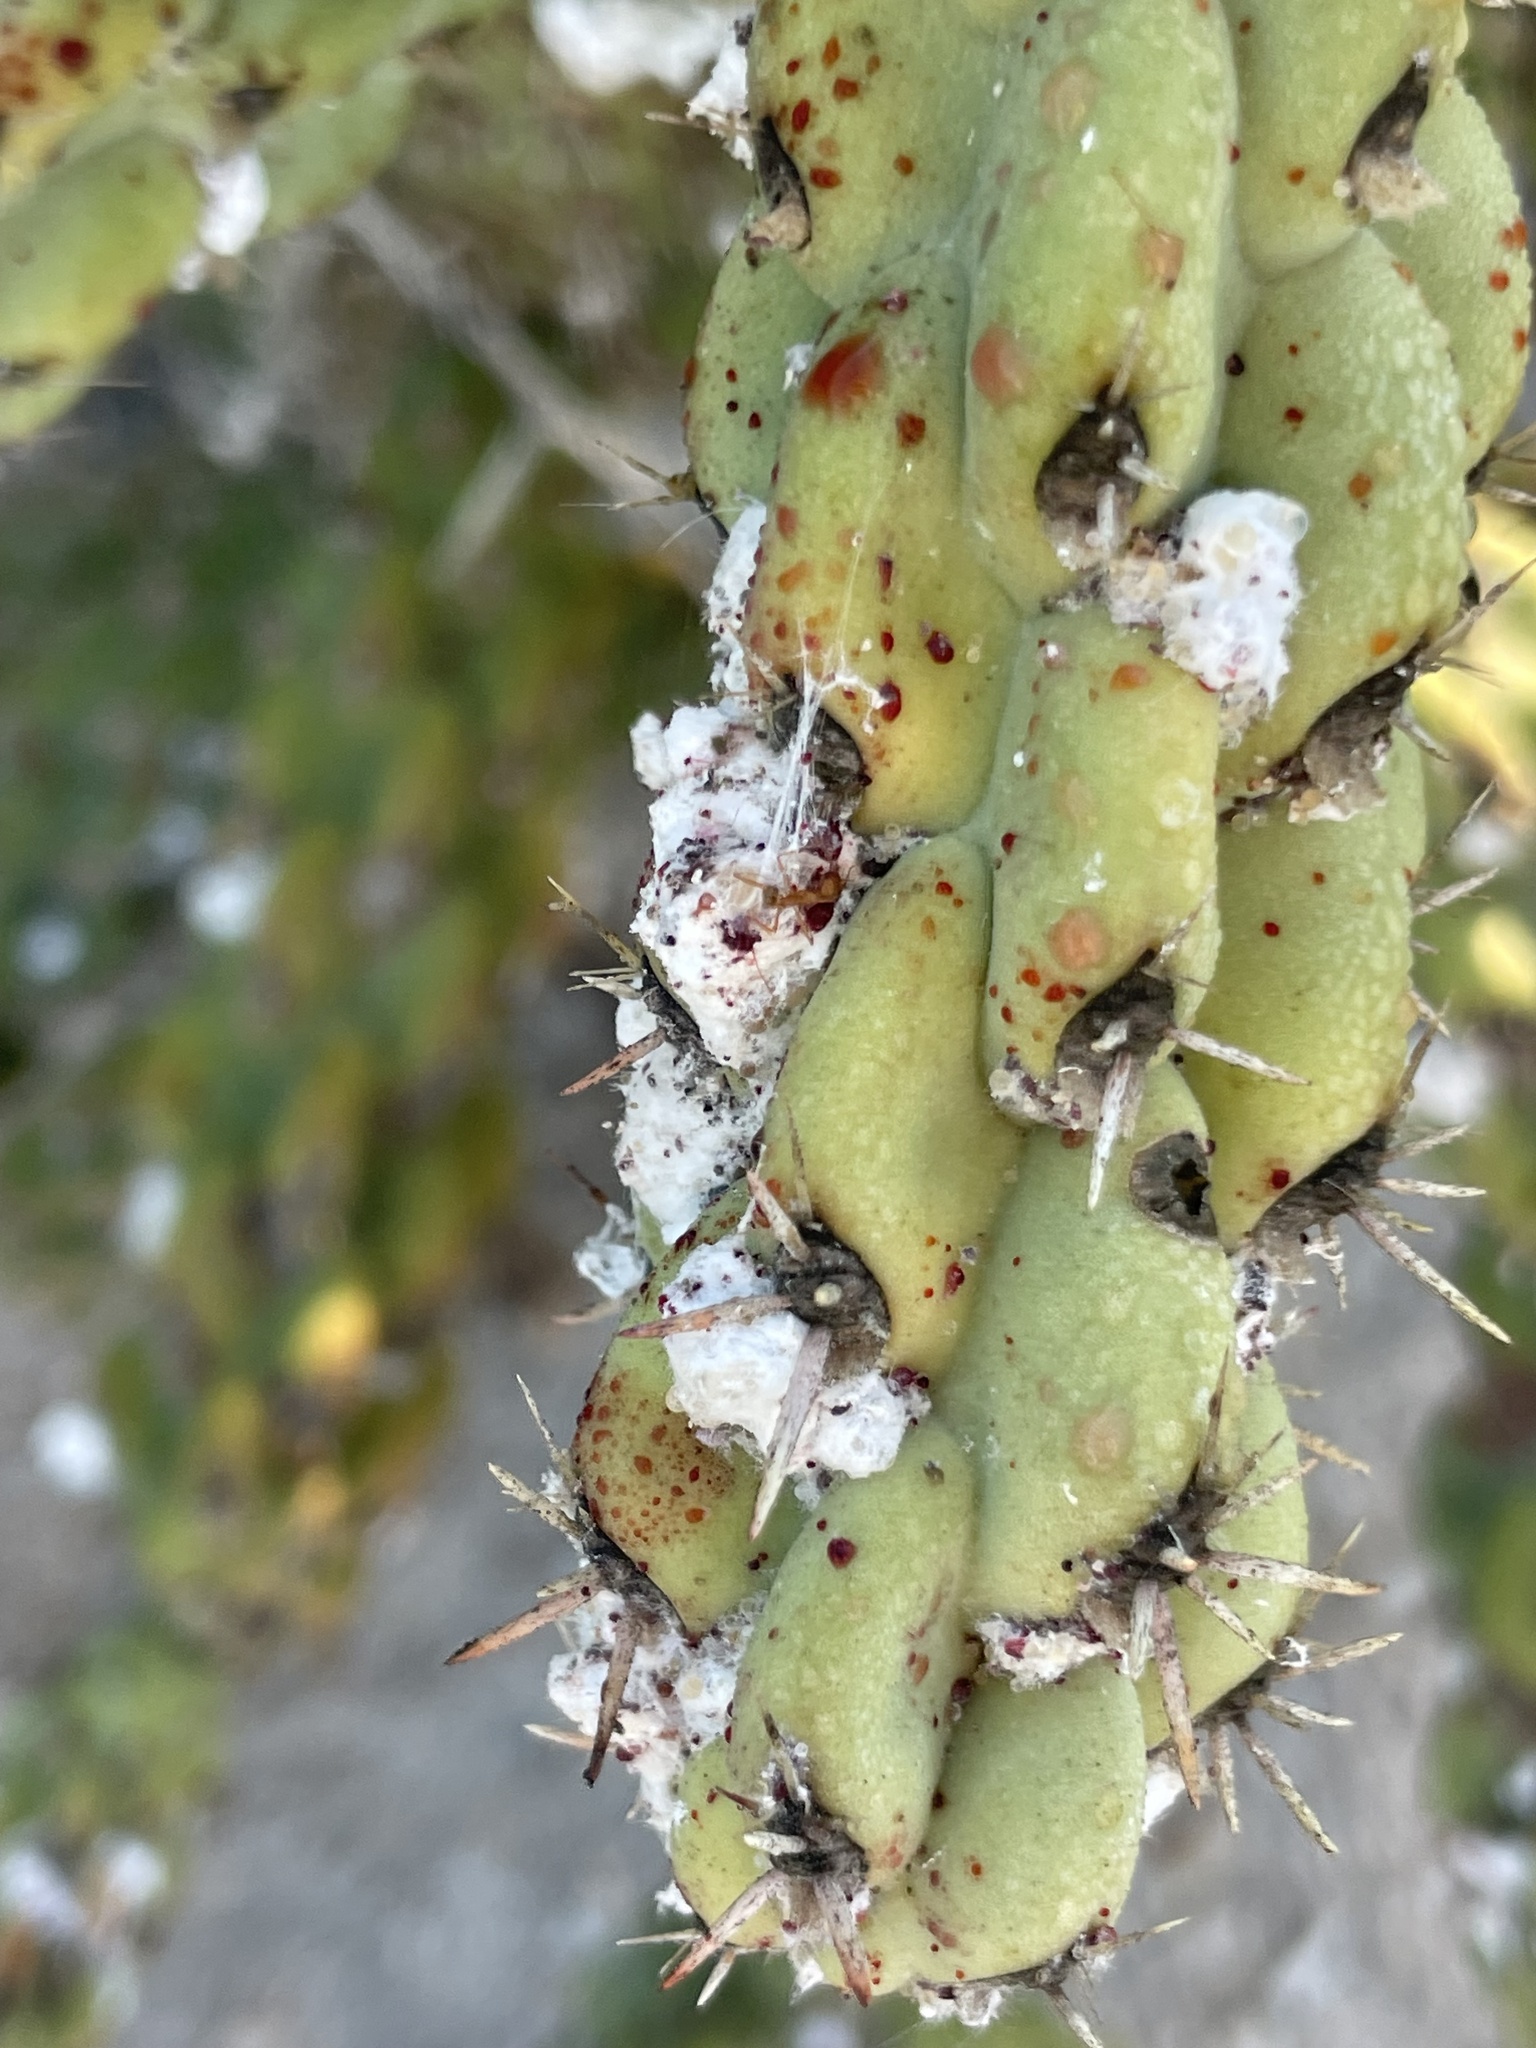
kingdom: Animalia
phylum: Arthropoda
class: Insecta
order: Hemiptera
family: Dactylopiidae
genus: Dactylopius
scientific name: Dactylopius coccus
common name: Cochineal
